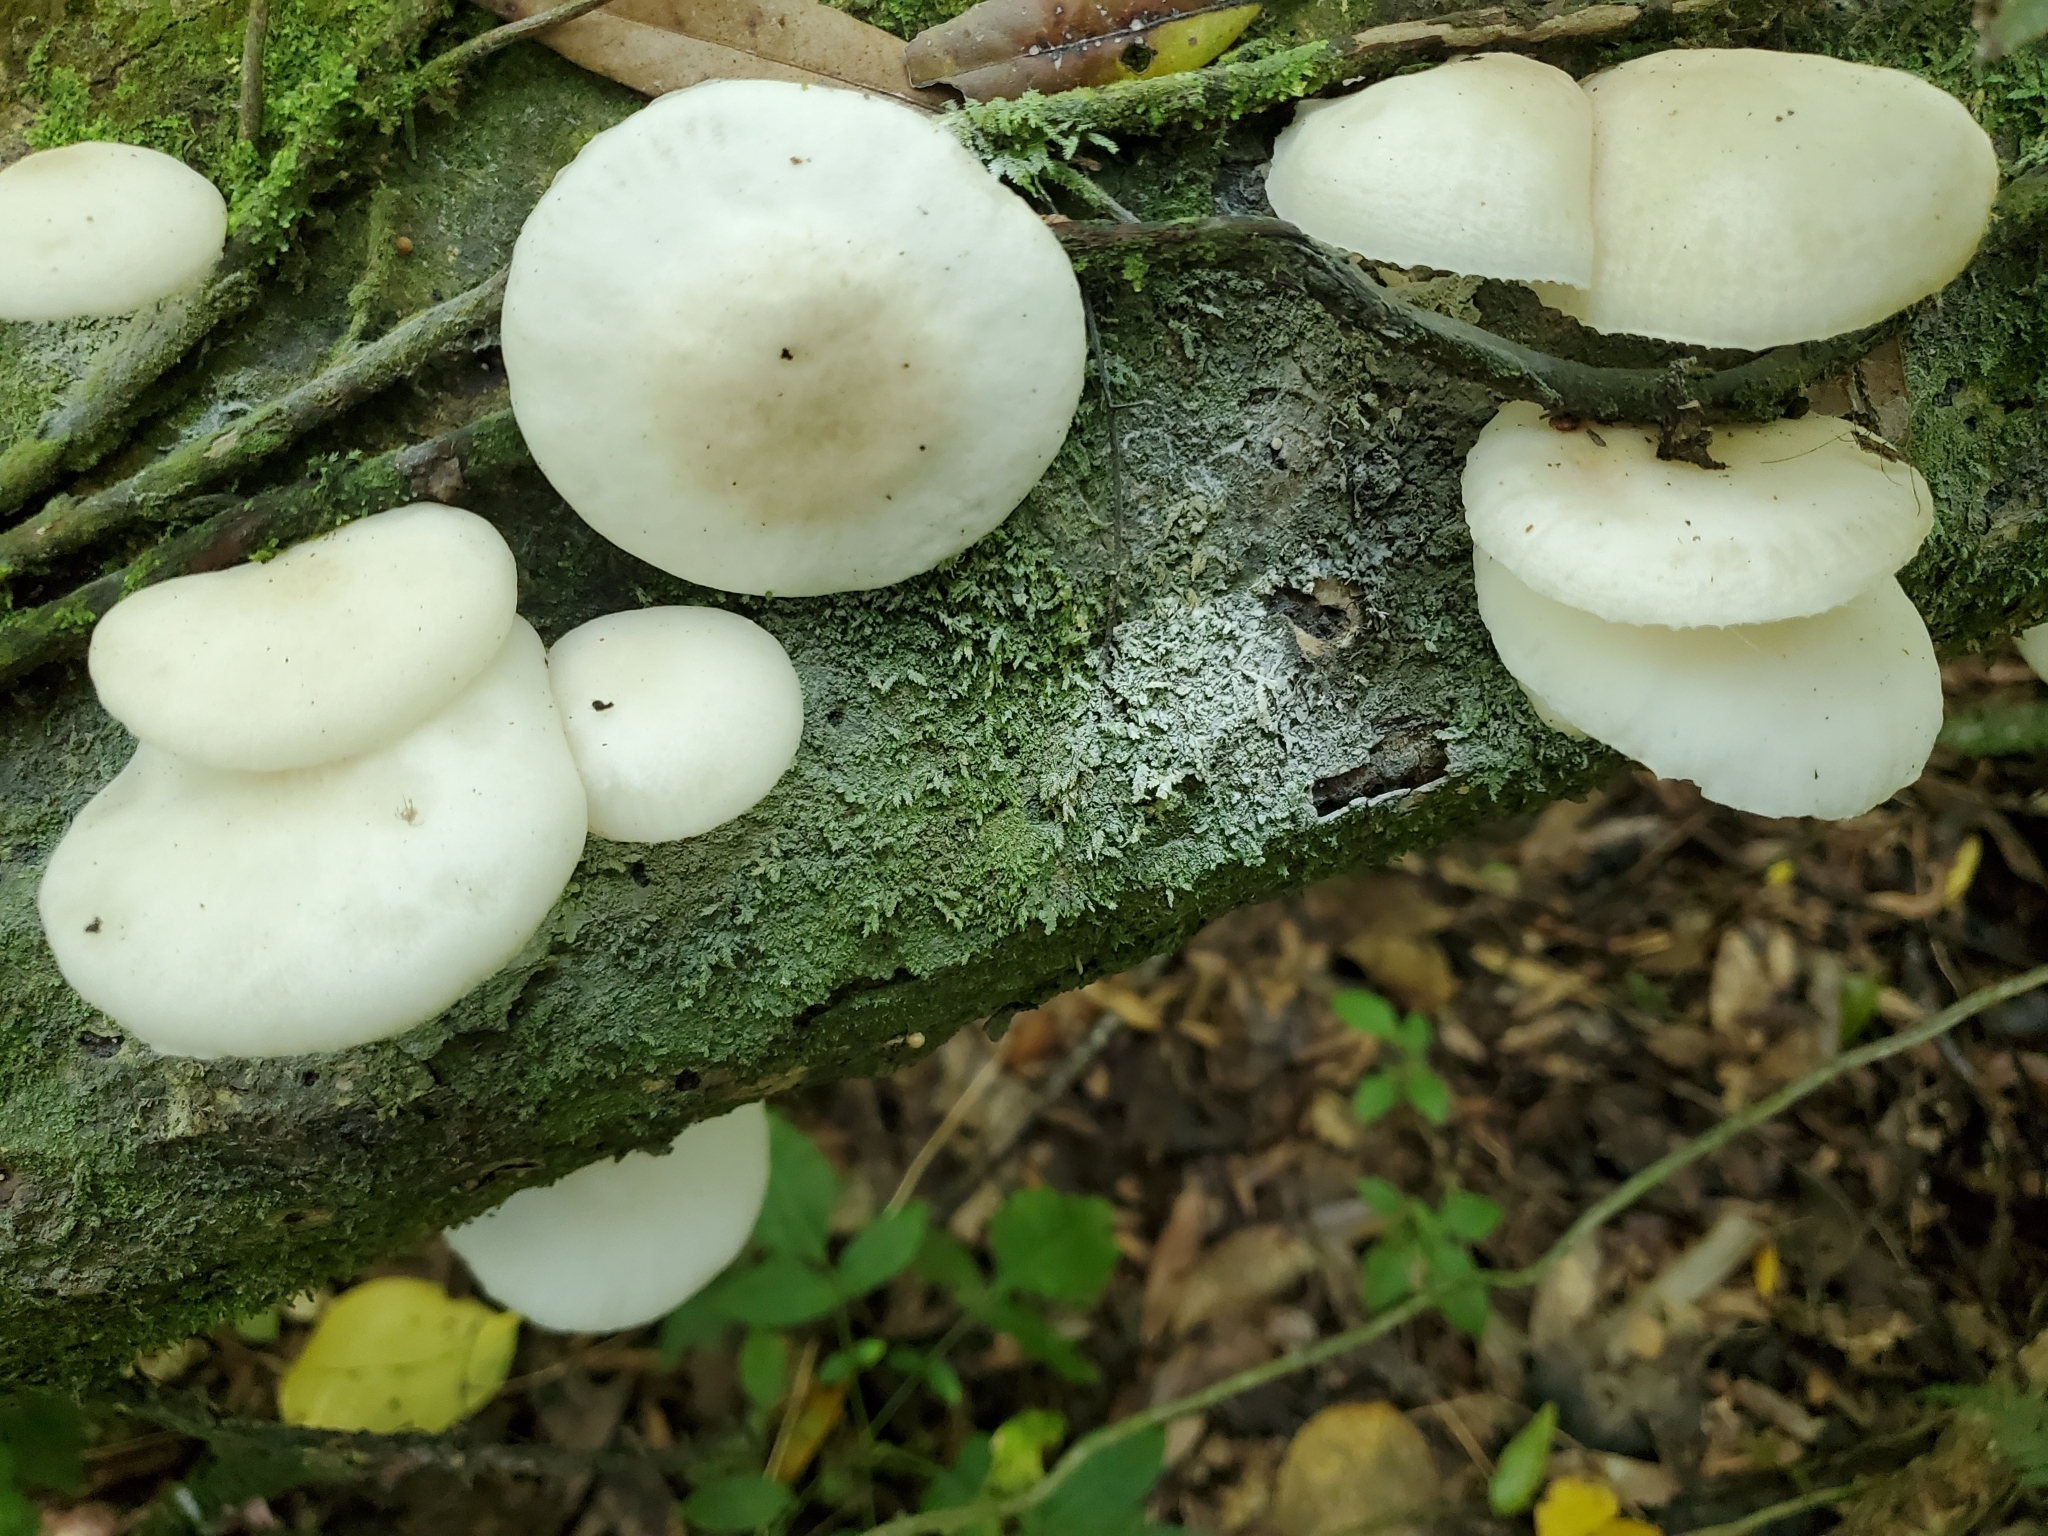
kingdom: Fungi
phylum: Basidiomycota
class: Agaricomycetes
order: Agaricales
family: Physalacriaceae
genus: Oudemansiella
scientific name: Oudemansiella australis
